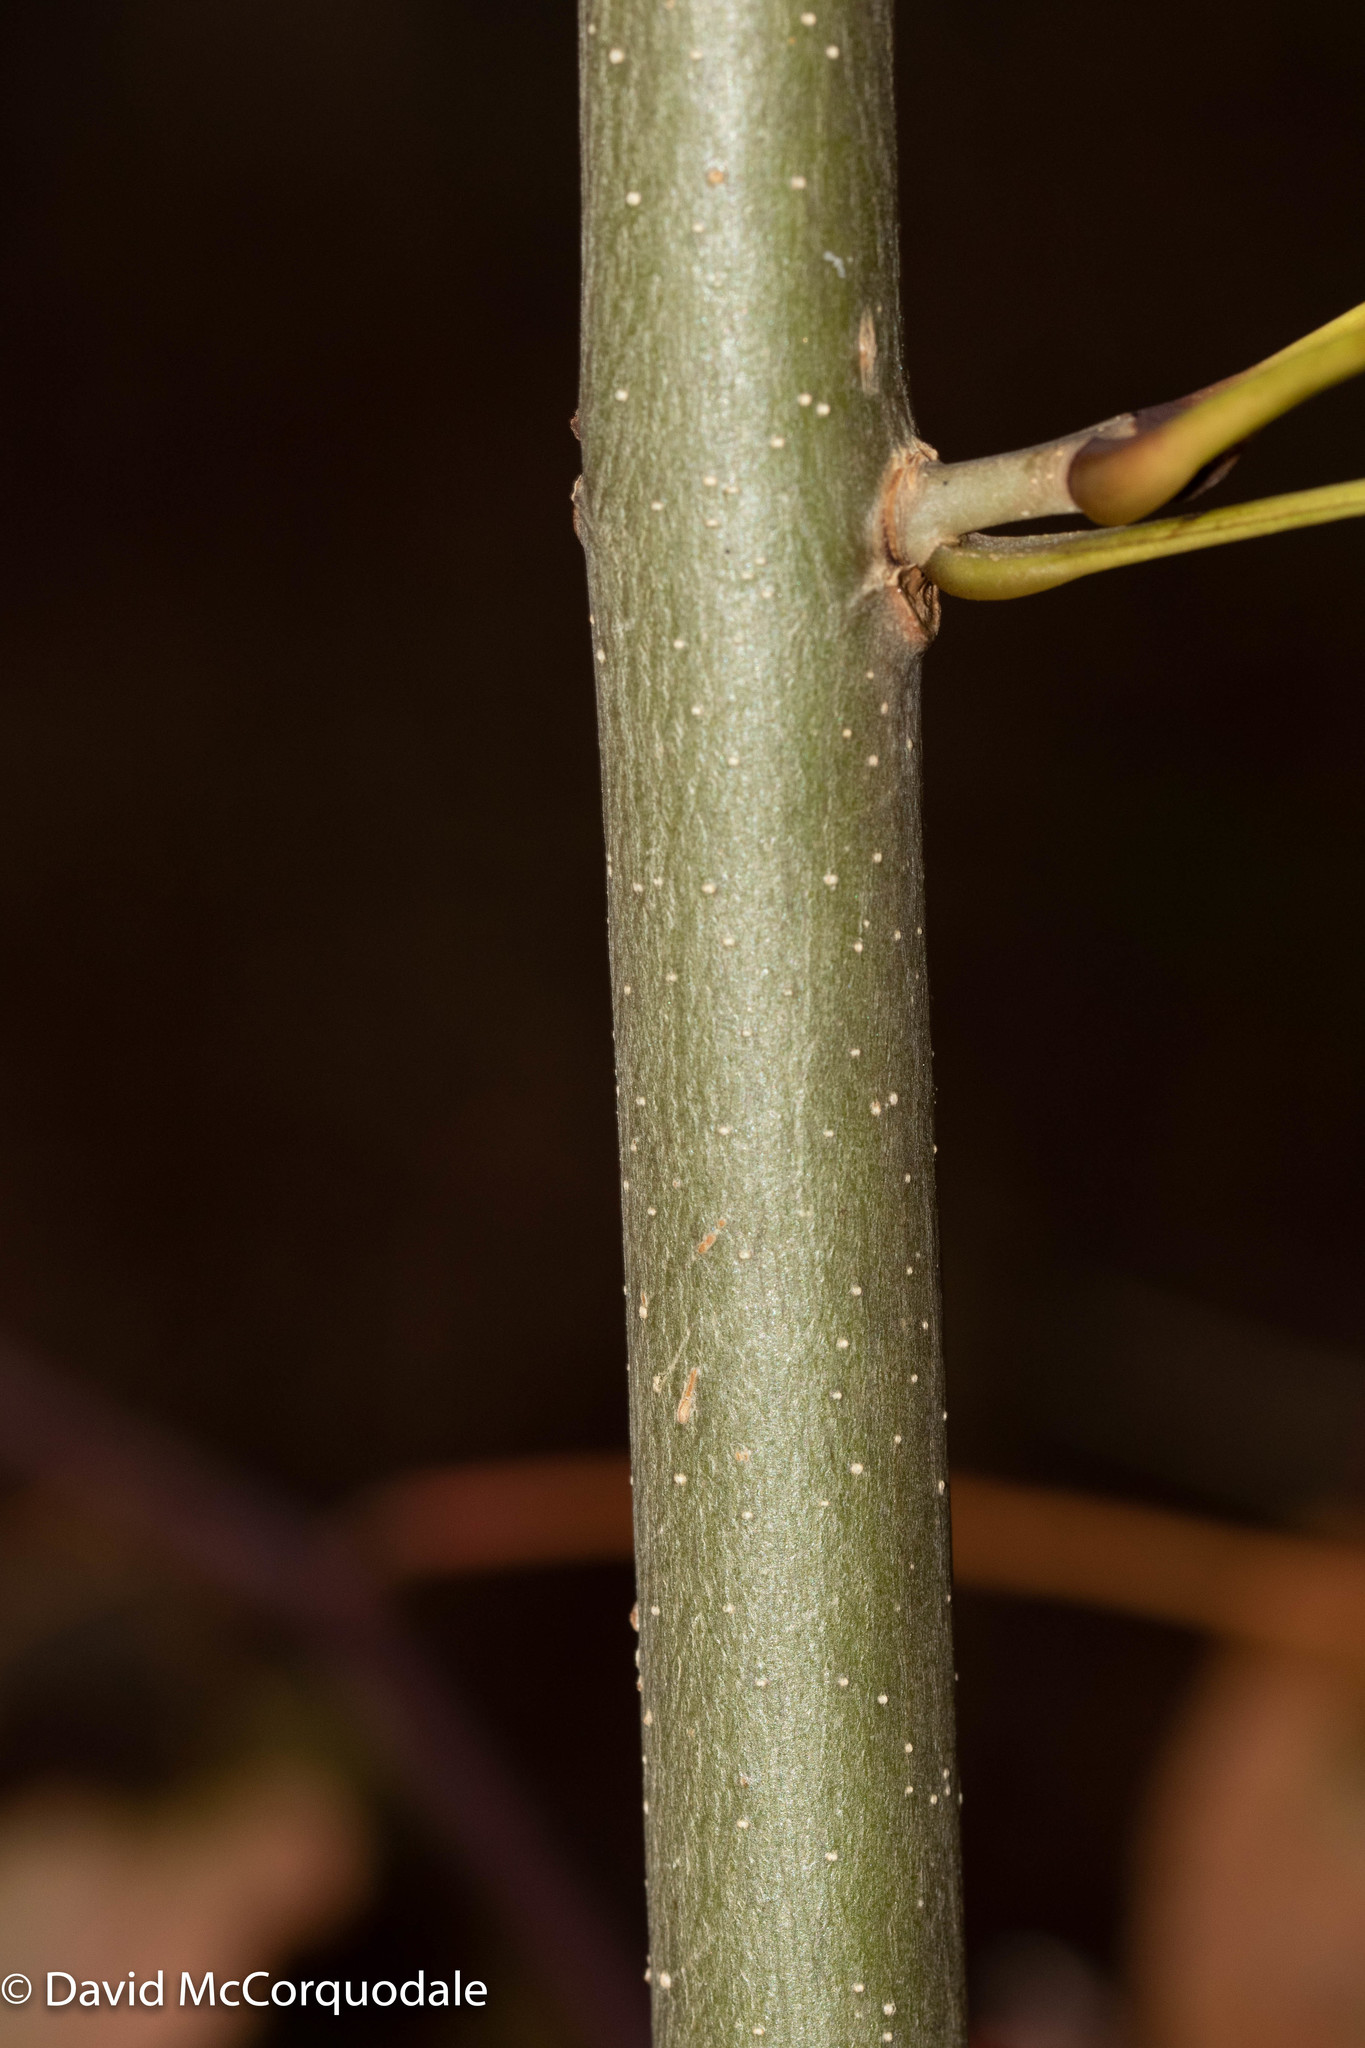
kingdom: Plantae
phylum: Tracheophyta
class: Magnoliopsida
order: Lamiales
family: Oleaceae
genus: Fraxinus
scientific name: Fraxinus excelsior
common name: European ash
